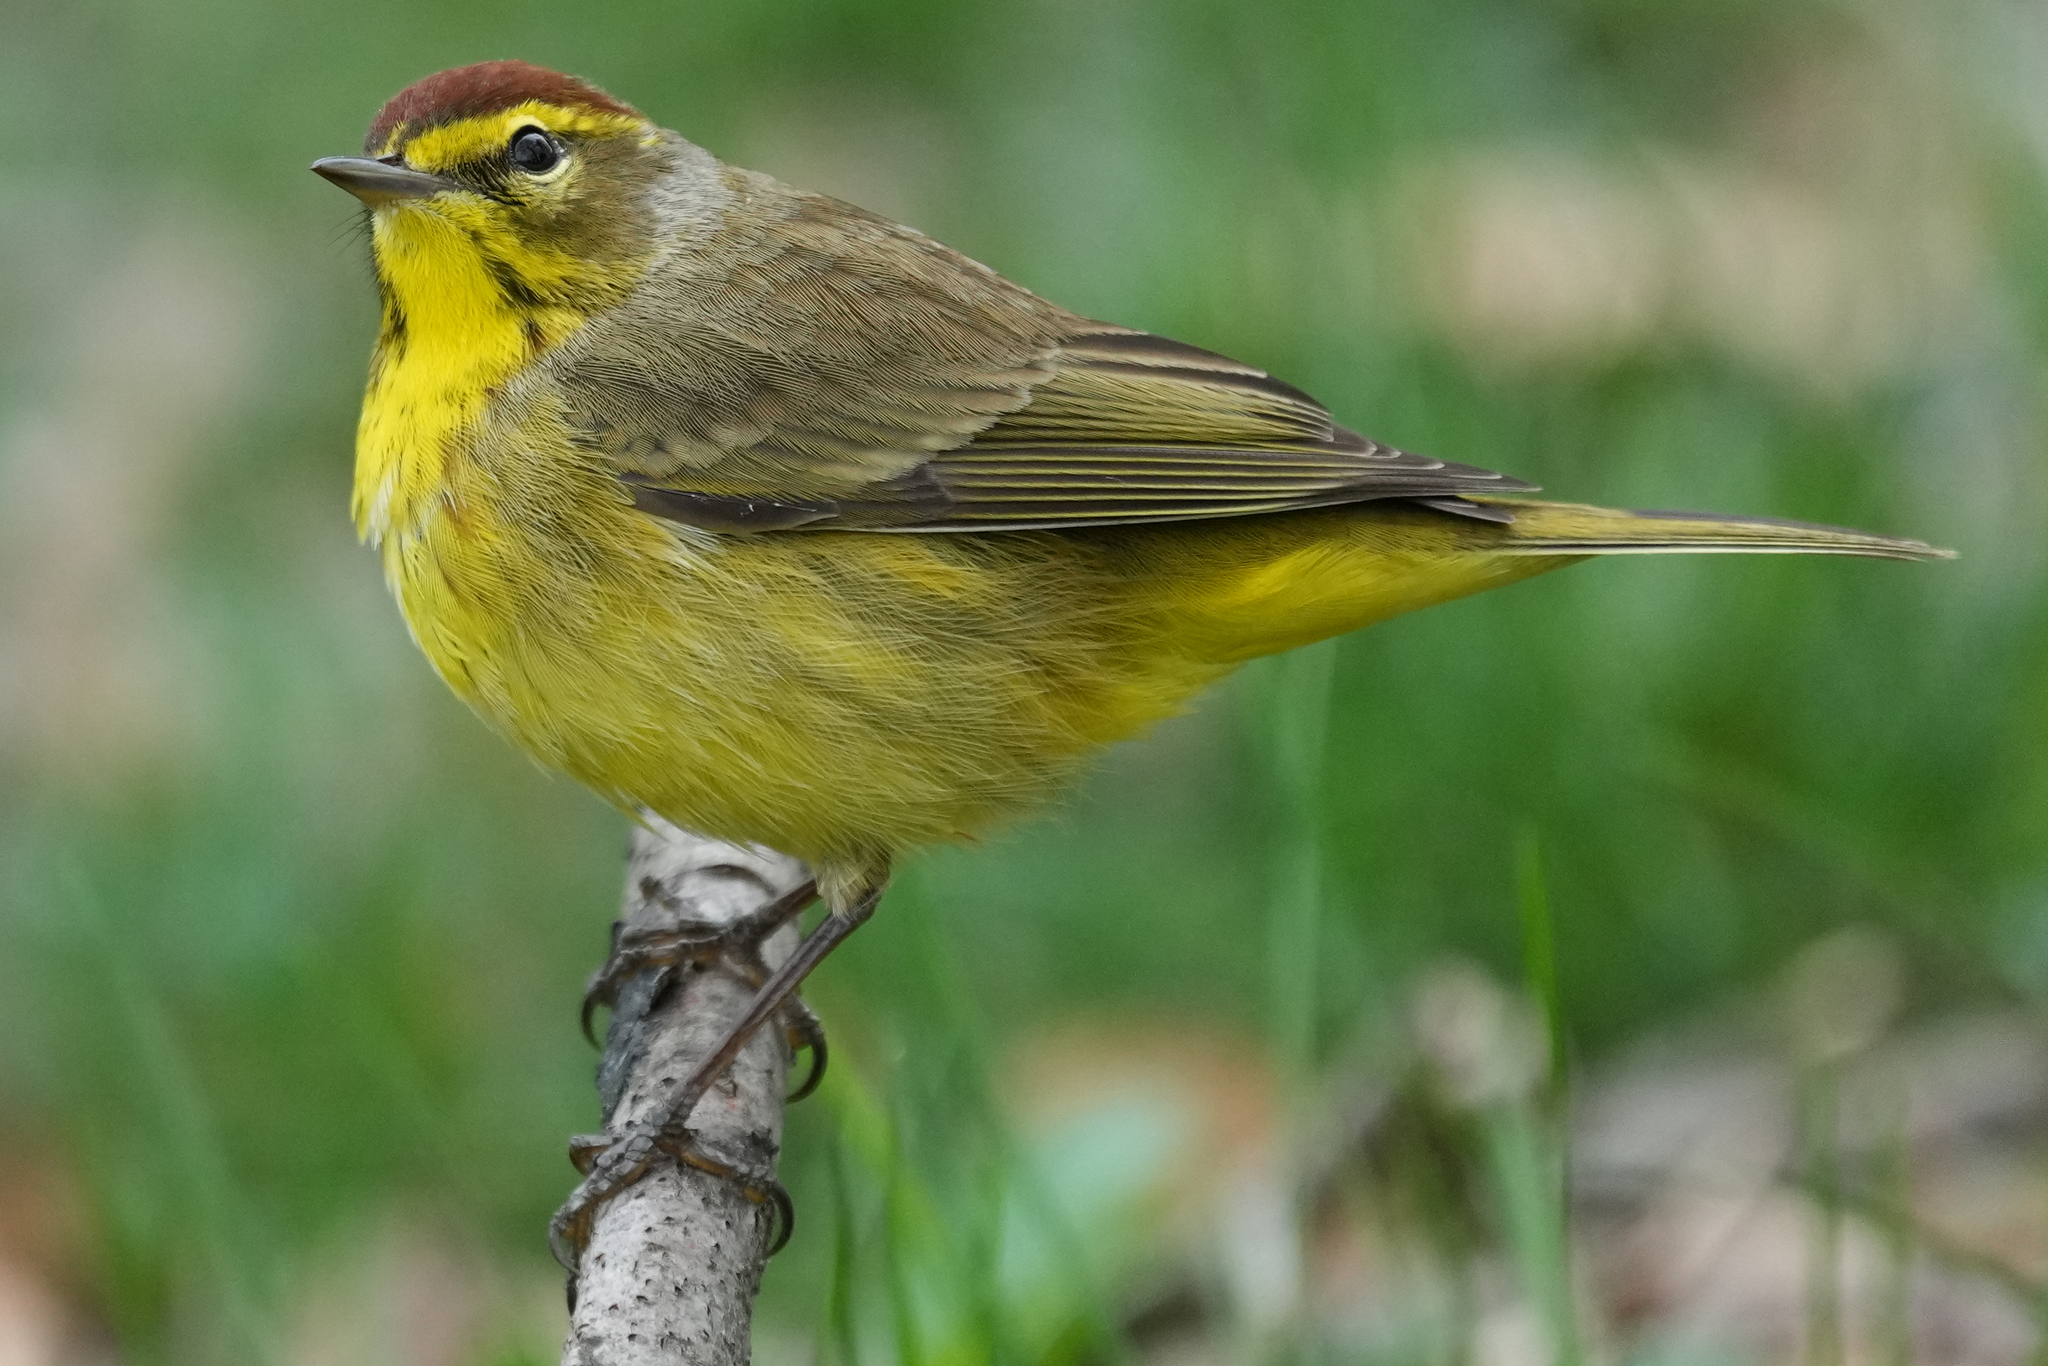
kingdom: Animalia
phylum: Chordata
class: Aves
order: Passeriformes
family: Parulidae
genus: Setophaga
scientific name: Setophaga palmarum
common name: Palm warbler
